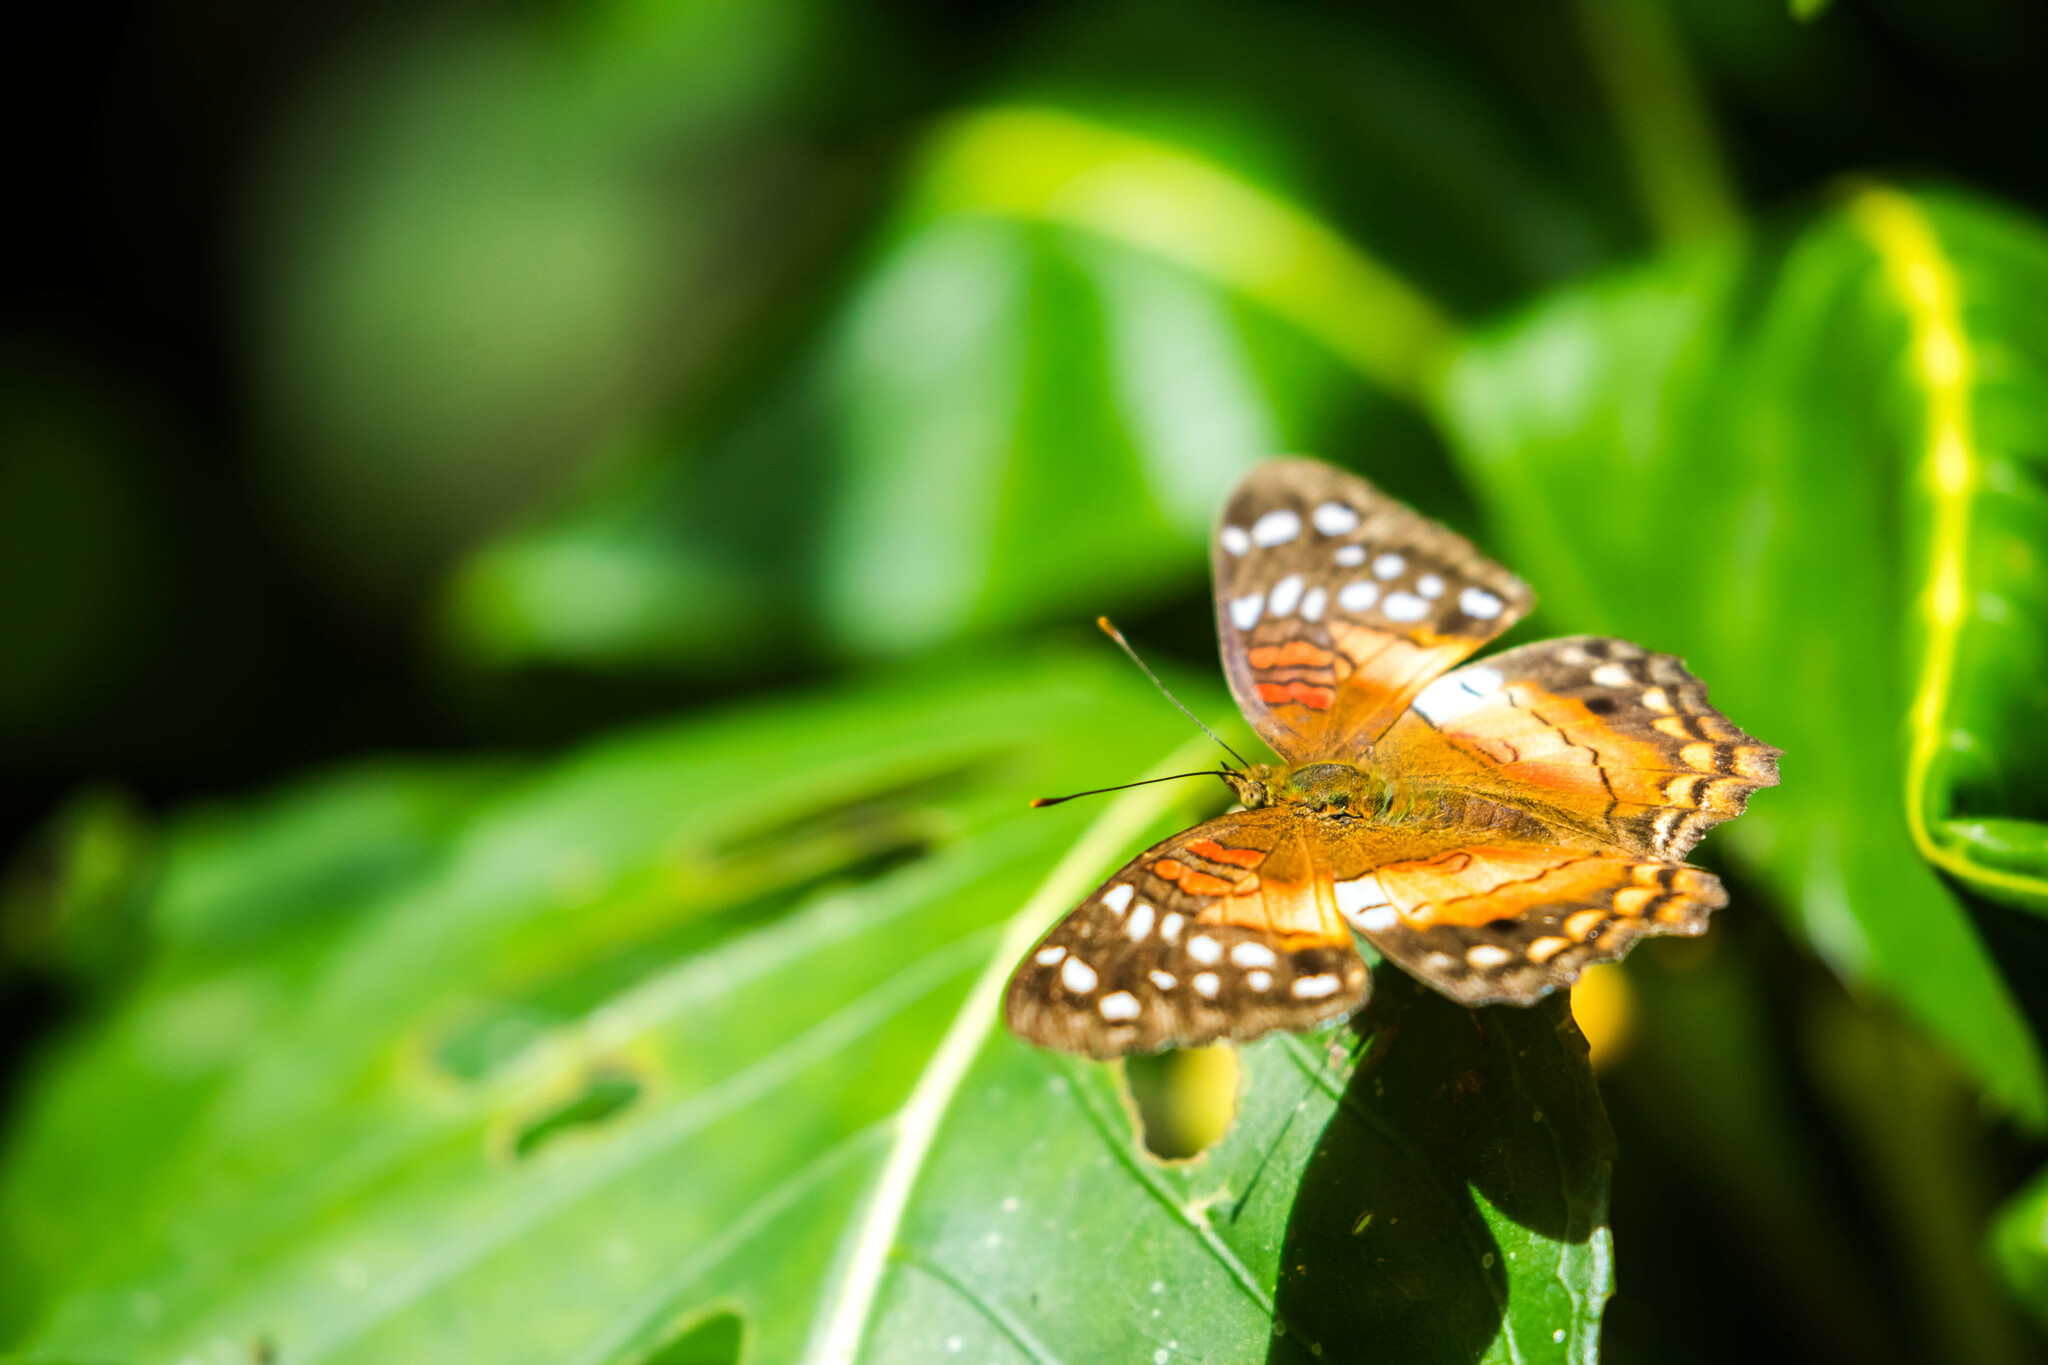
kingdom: Animalia
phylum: Arthropoda
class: Insecta
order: Lepidoptera
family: Nymphalidae
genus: Anartia
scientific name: Anartia amathea
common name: Red peacock
